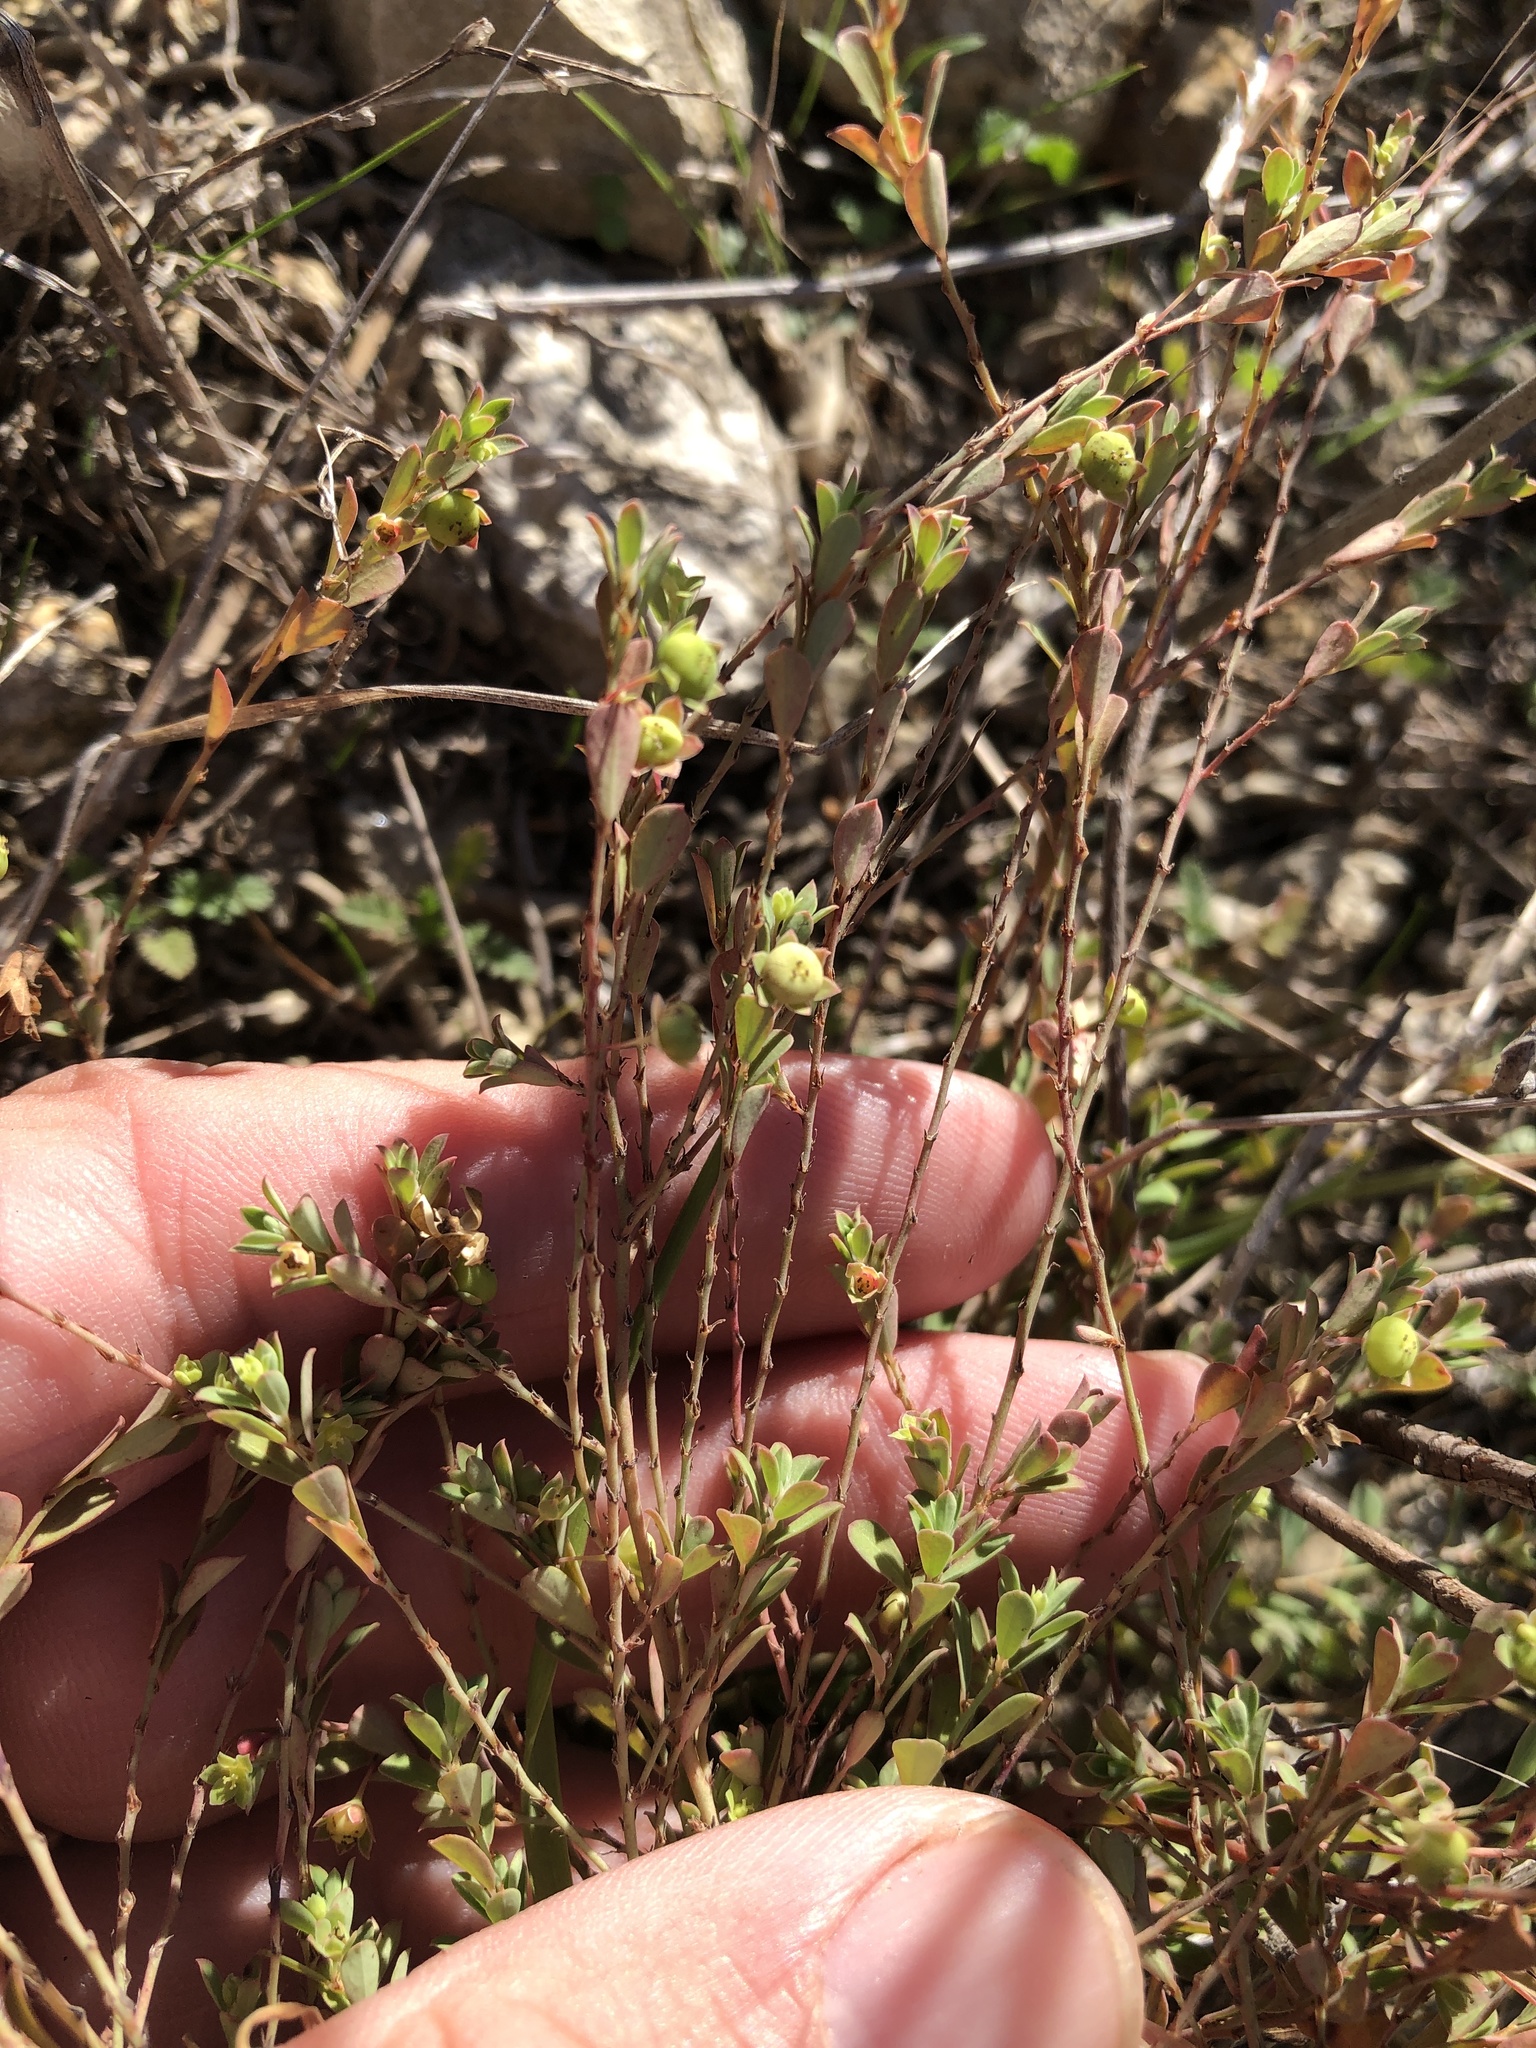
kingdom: Plantae
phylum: Tracheophyta
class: Magnoliopsida
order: Malpighiales
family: Phyllanthaceae
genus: Phyllanthus
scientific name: Phyllanthus polygonoides
